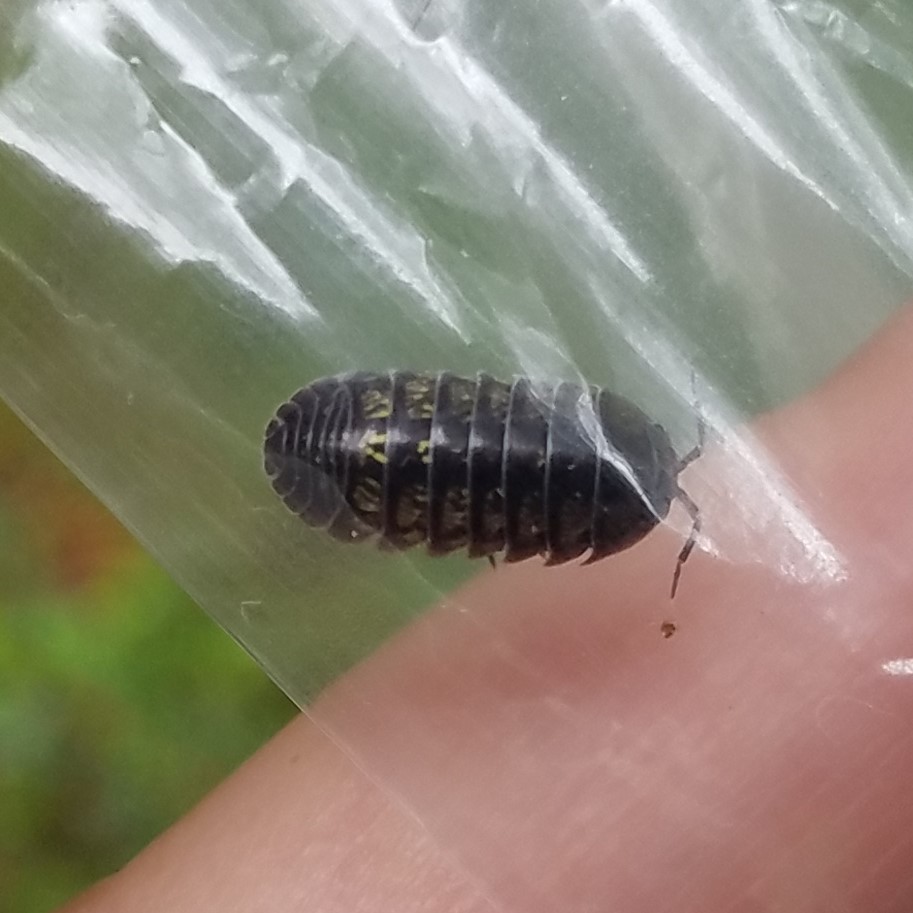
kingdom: Animalia
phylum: Arthropoda
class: Malacostraca
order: Isopoda
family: Armadillidiidae
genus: Armadillidium
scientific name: Armadillidium vulgare
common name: Common pill woodlouse
